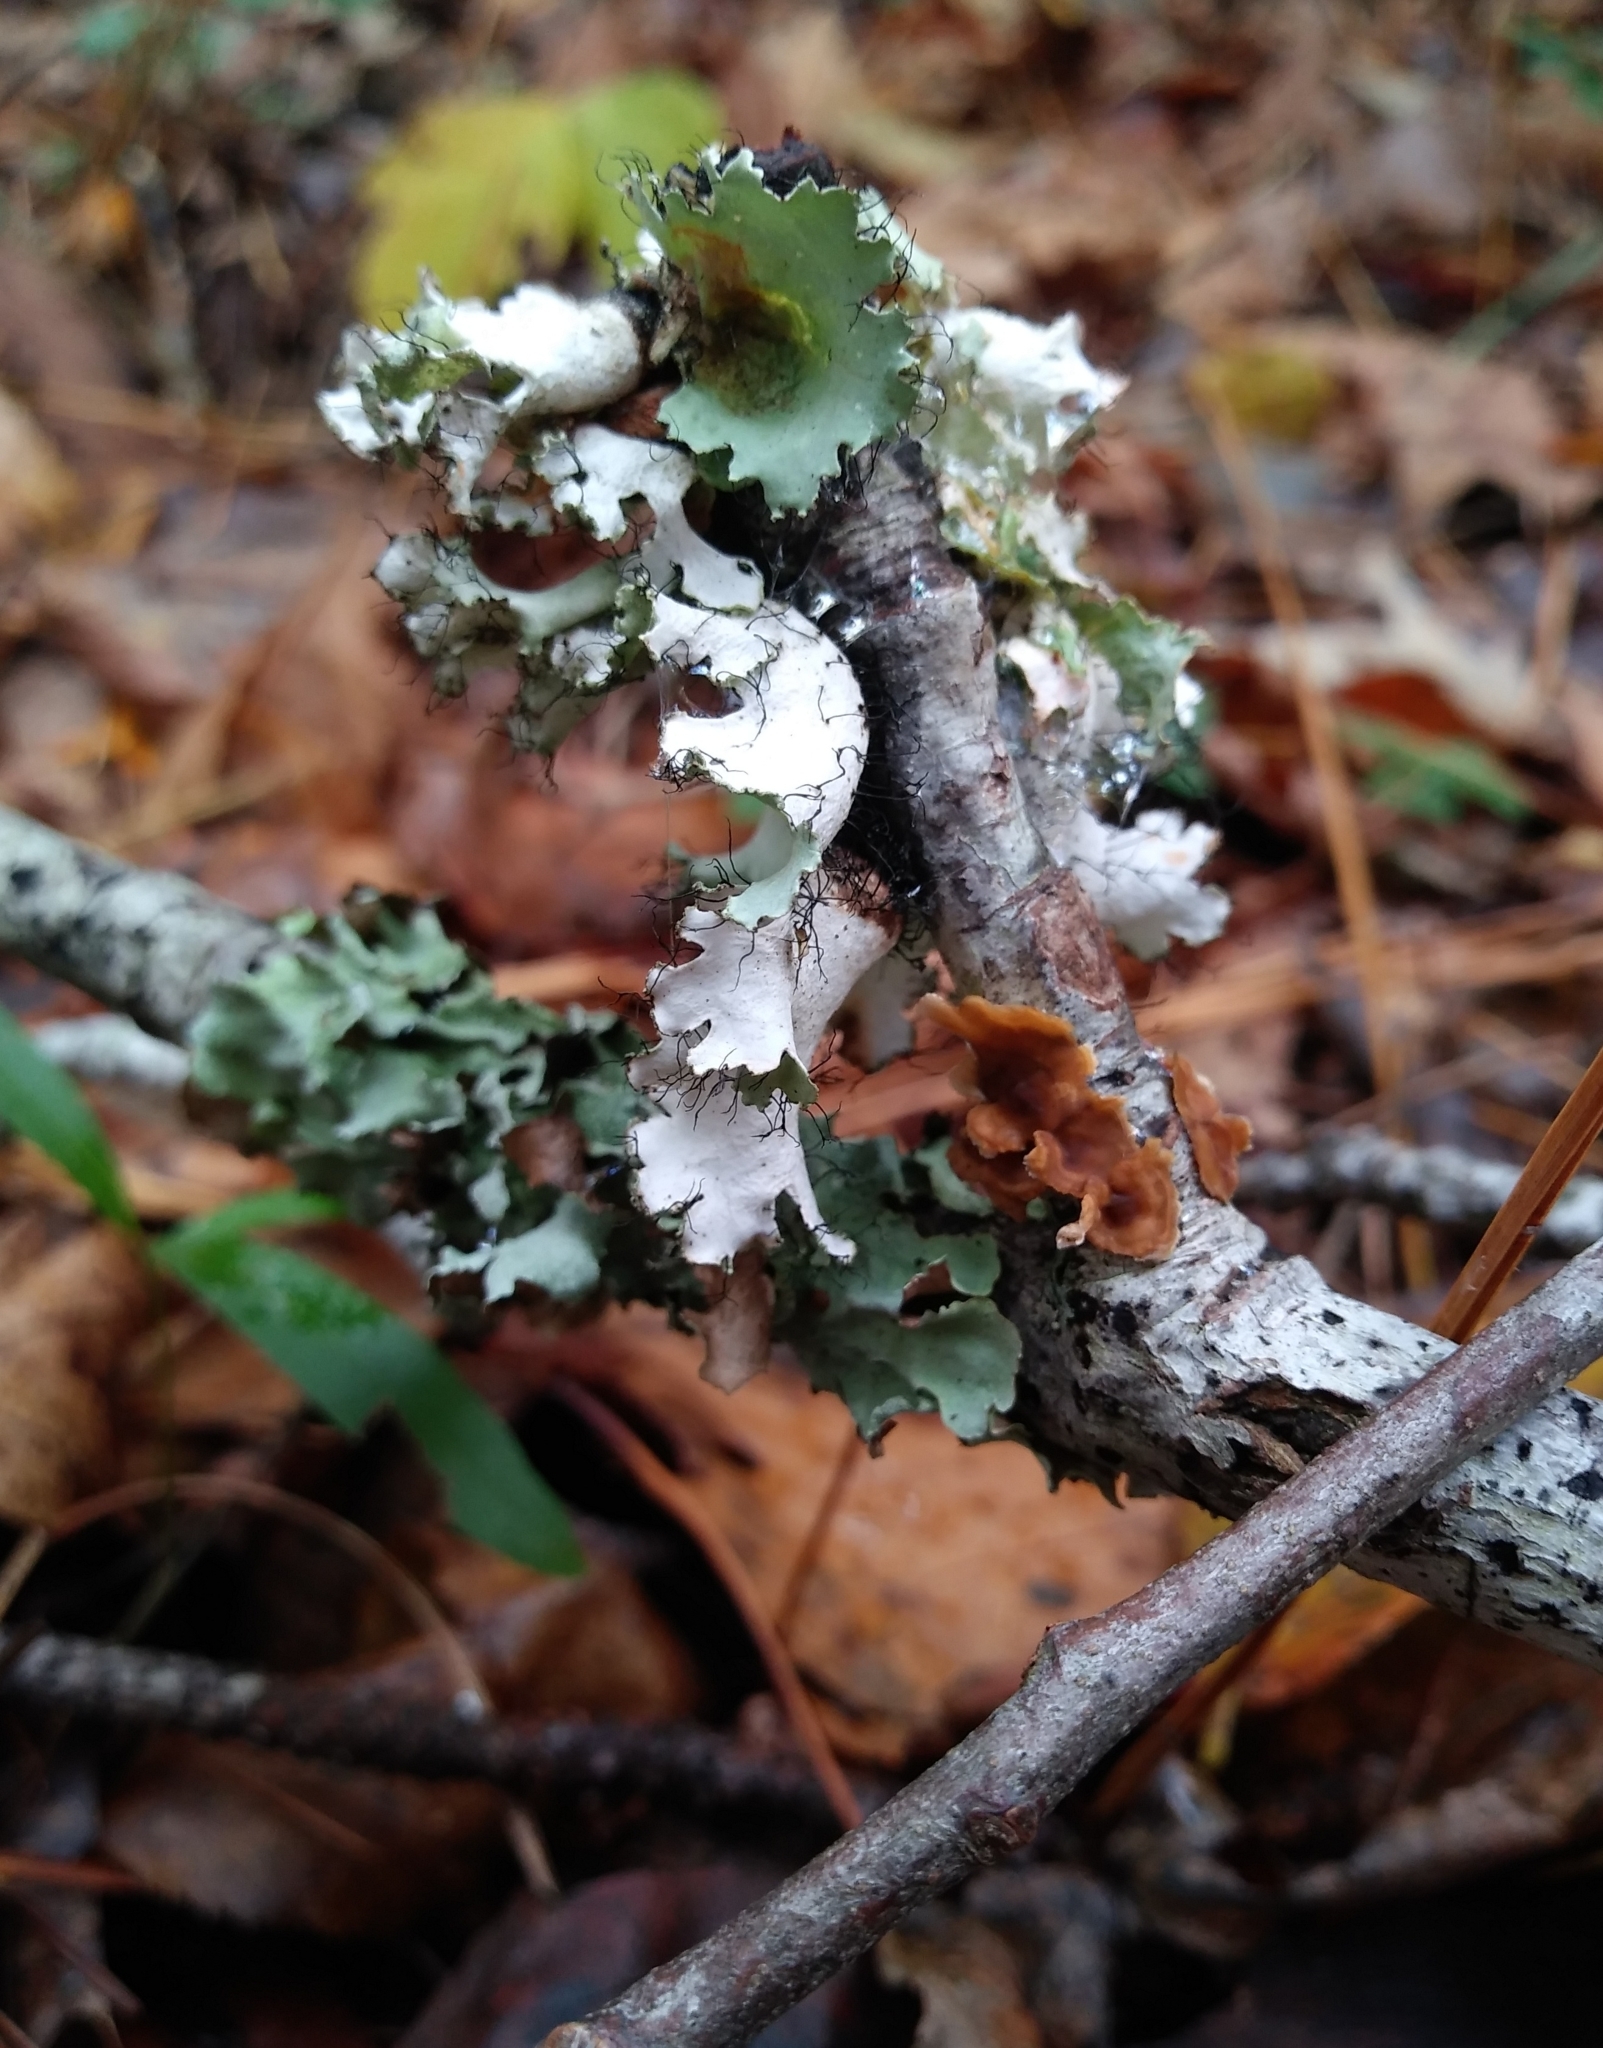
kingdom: Fungi
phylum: Ascomycota
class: Lecanoromycetes
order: Lecanorales
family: Parmeliaceae
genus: Parmotrema
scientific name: Parmotrema hypotropum
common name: Powdered ruffle lichen
